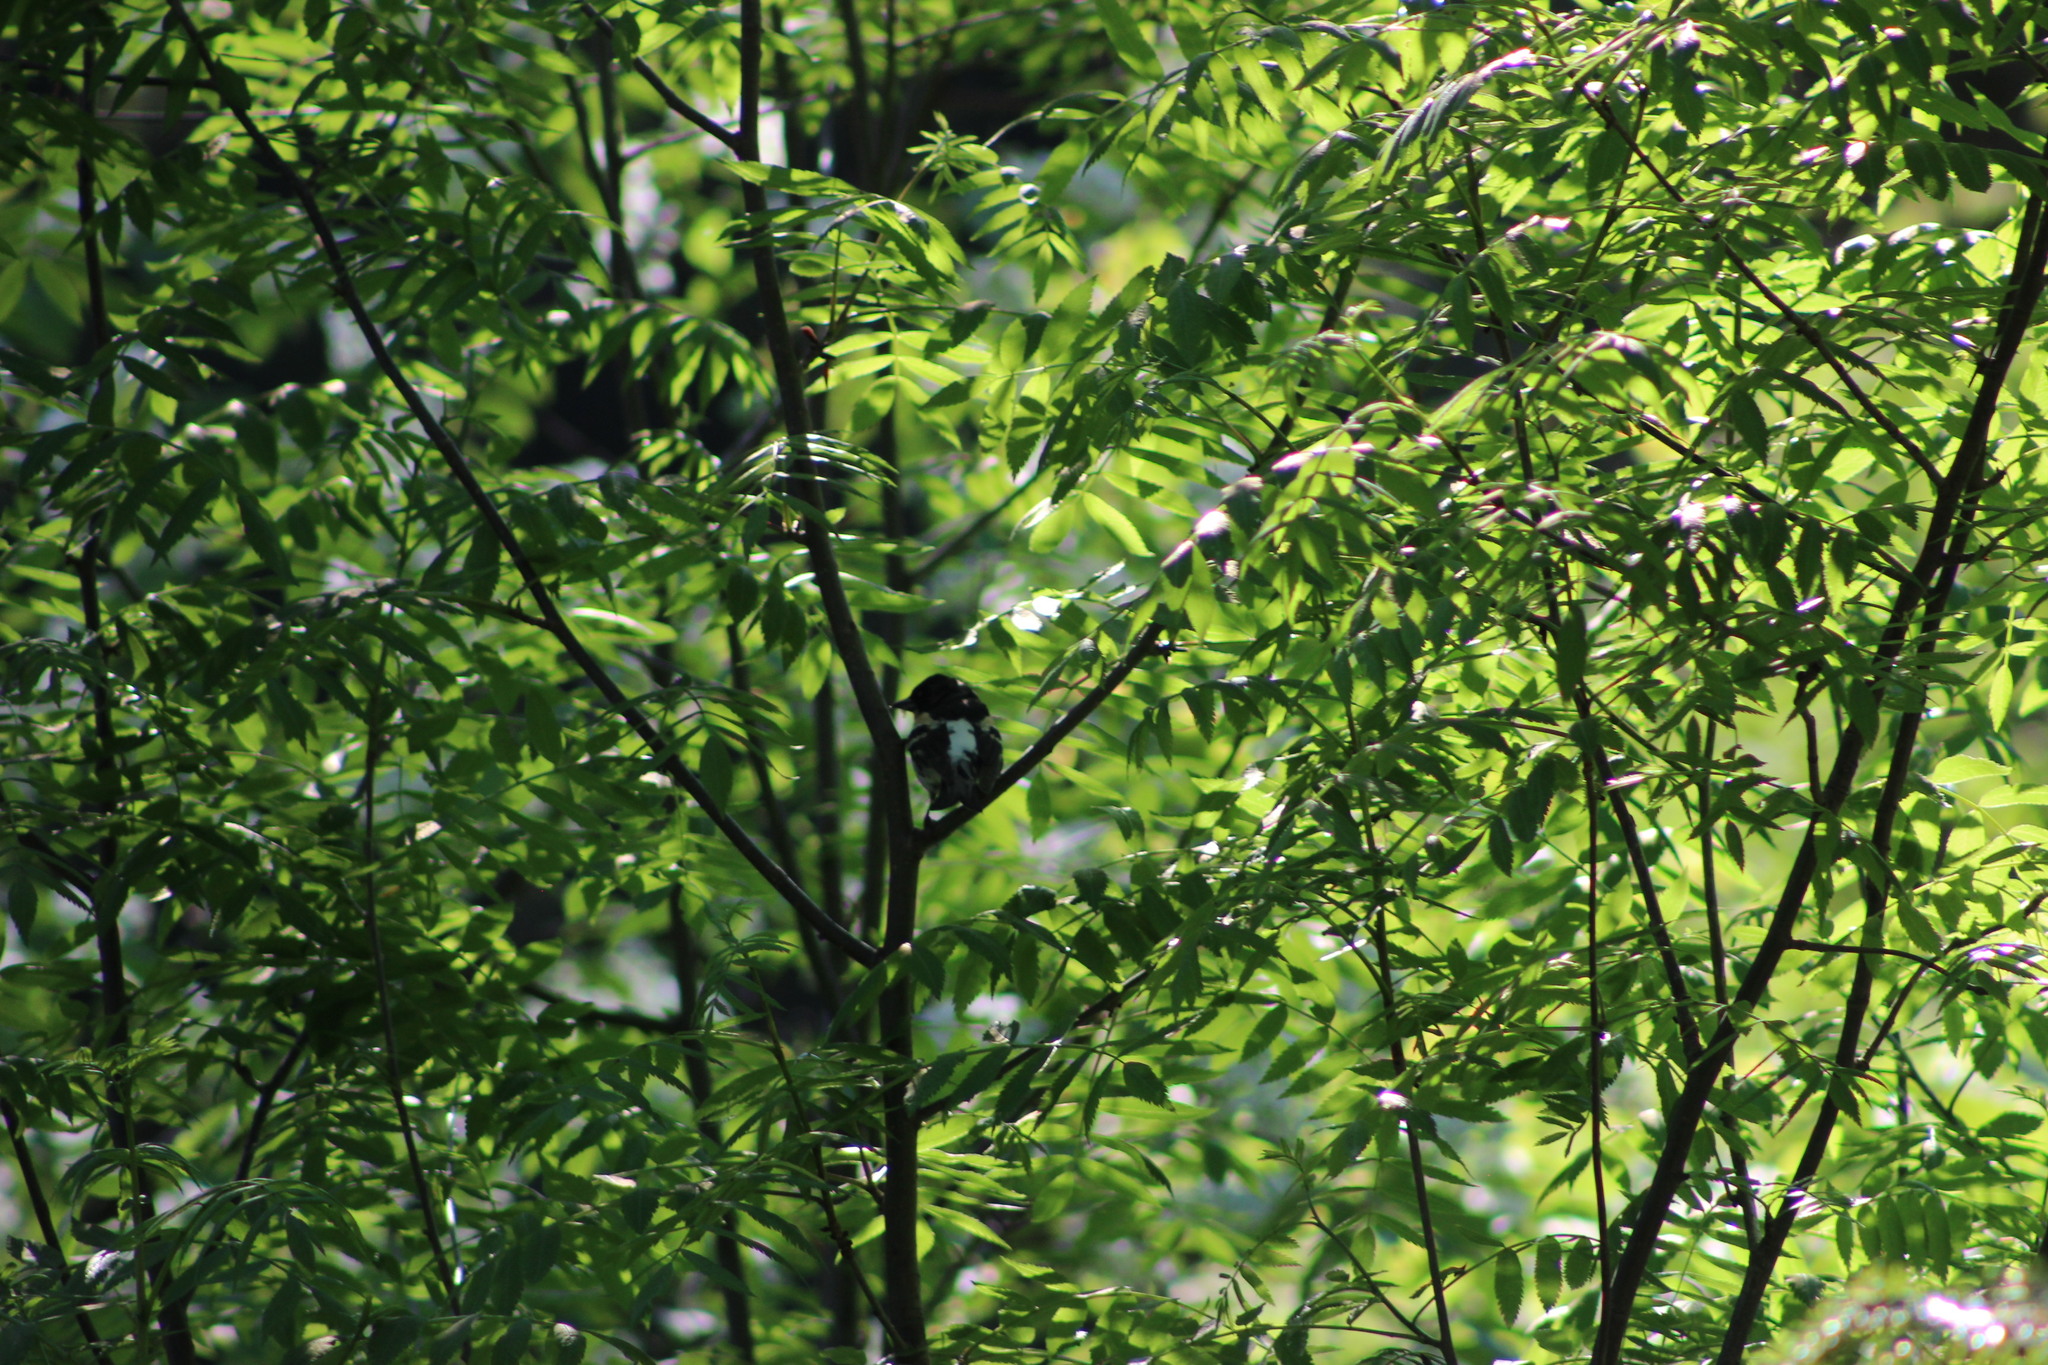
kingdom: Animalia
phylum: Chordata
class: Aves
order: Passeriformes
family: Fringillidae
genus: Fringilla
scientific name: Fringilla montifringilla
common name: Brambling
